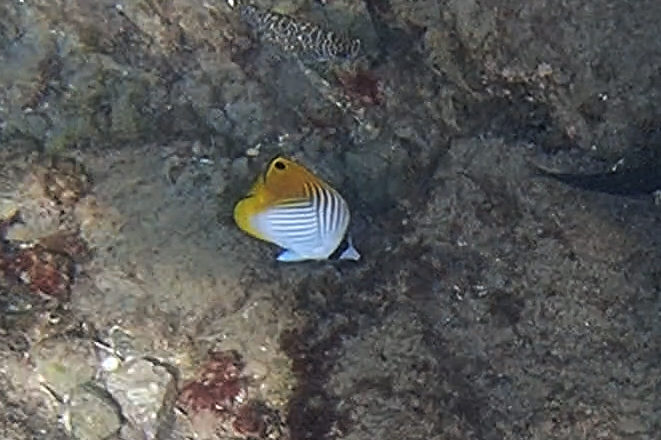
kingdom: Animalia
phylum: Chordata
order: Perciformes
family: Chaetodontidae
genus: Chaetodon
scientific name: Chaetodon auriga
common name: Threadfin butterflyfish
